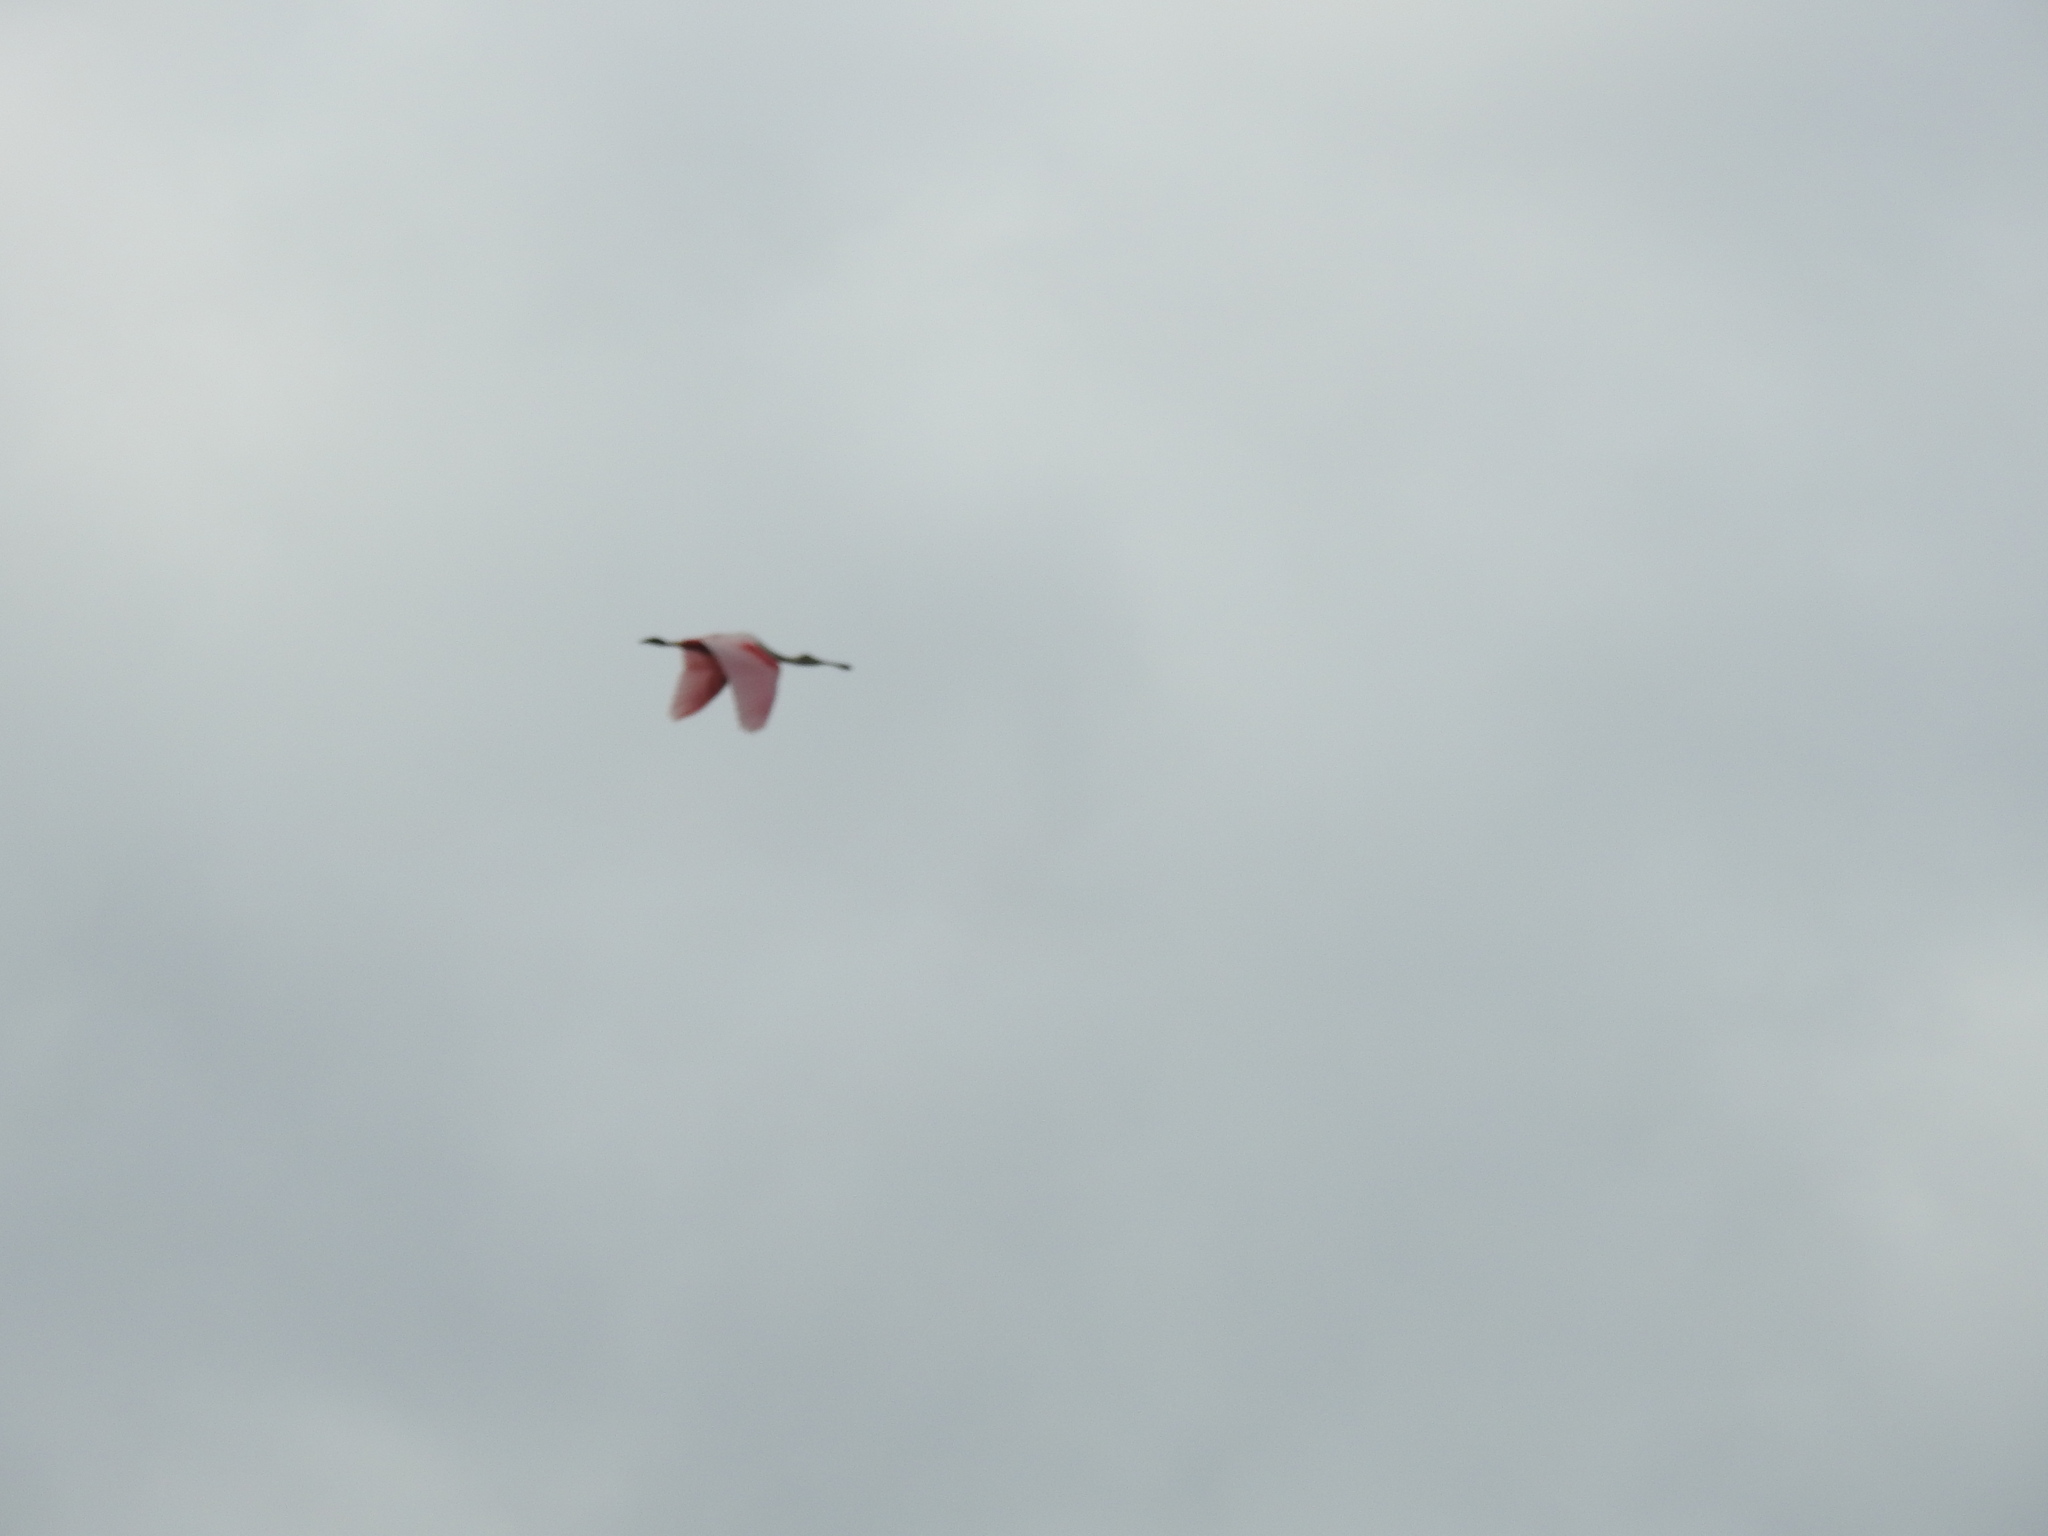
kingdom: Animalia
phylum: Chordata
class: Aves
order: Pelecaniformes
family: Threskiornithidae
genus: Platalea
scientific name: Platalea ajaja
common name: Roseate spoonbill
